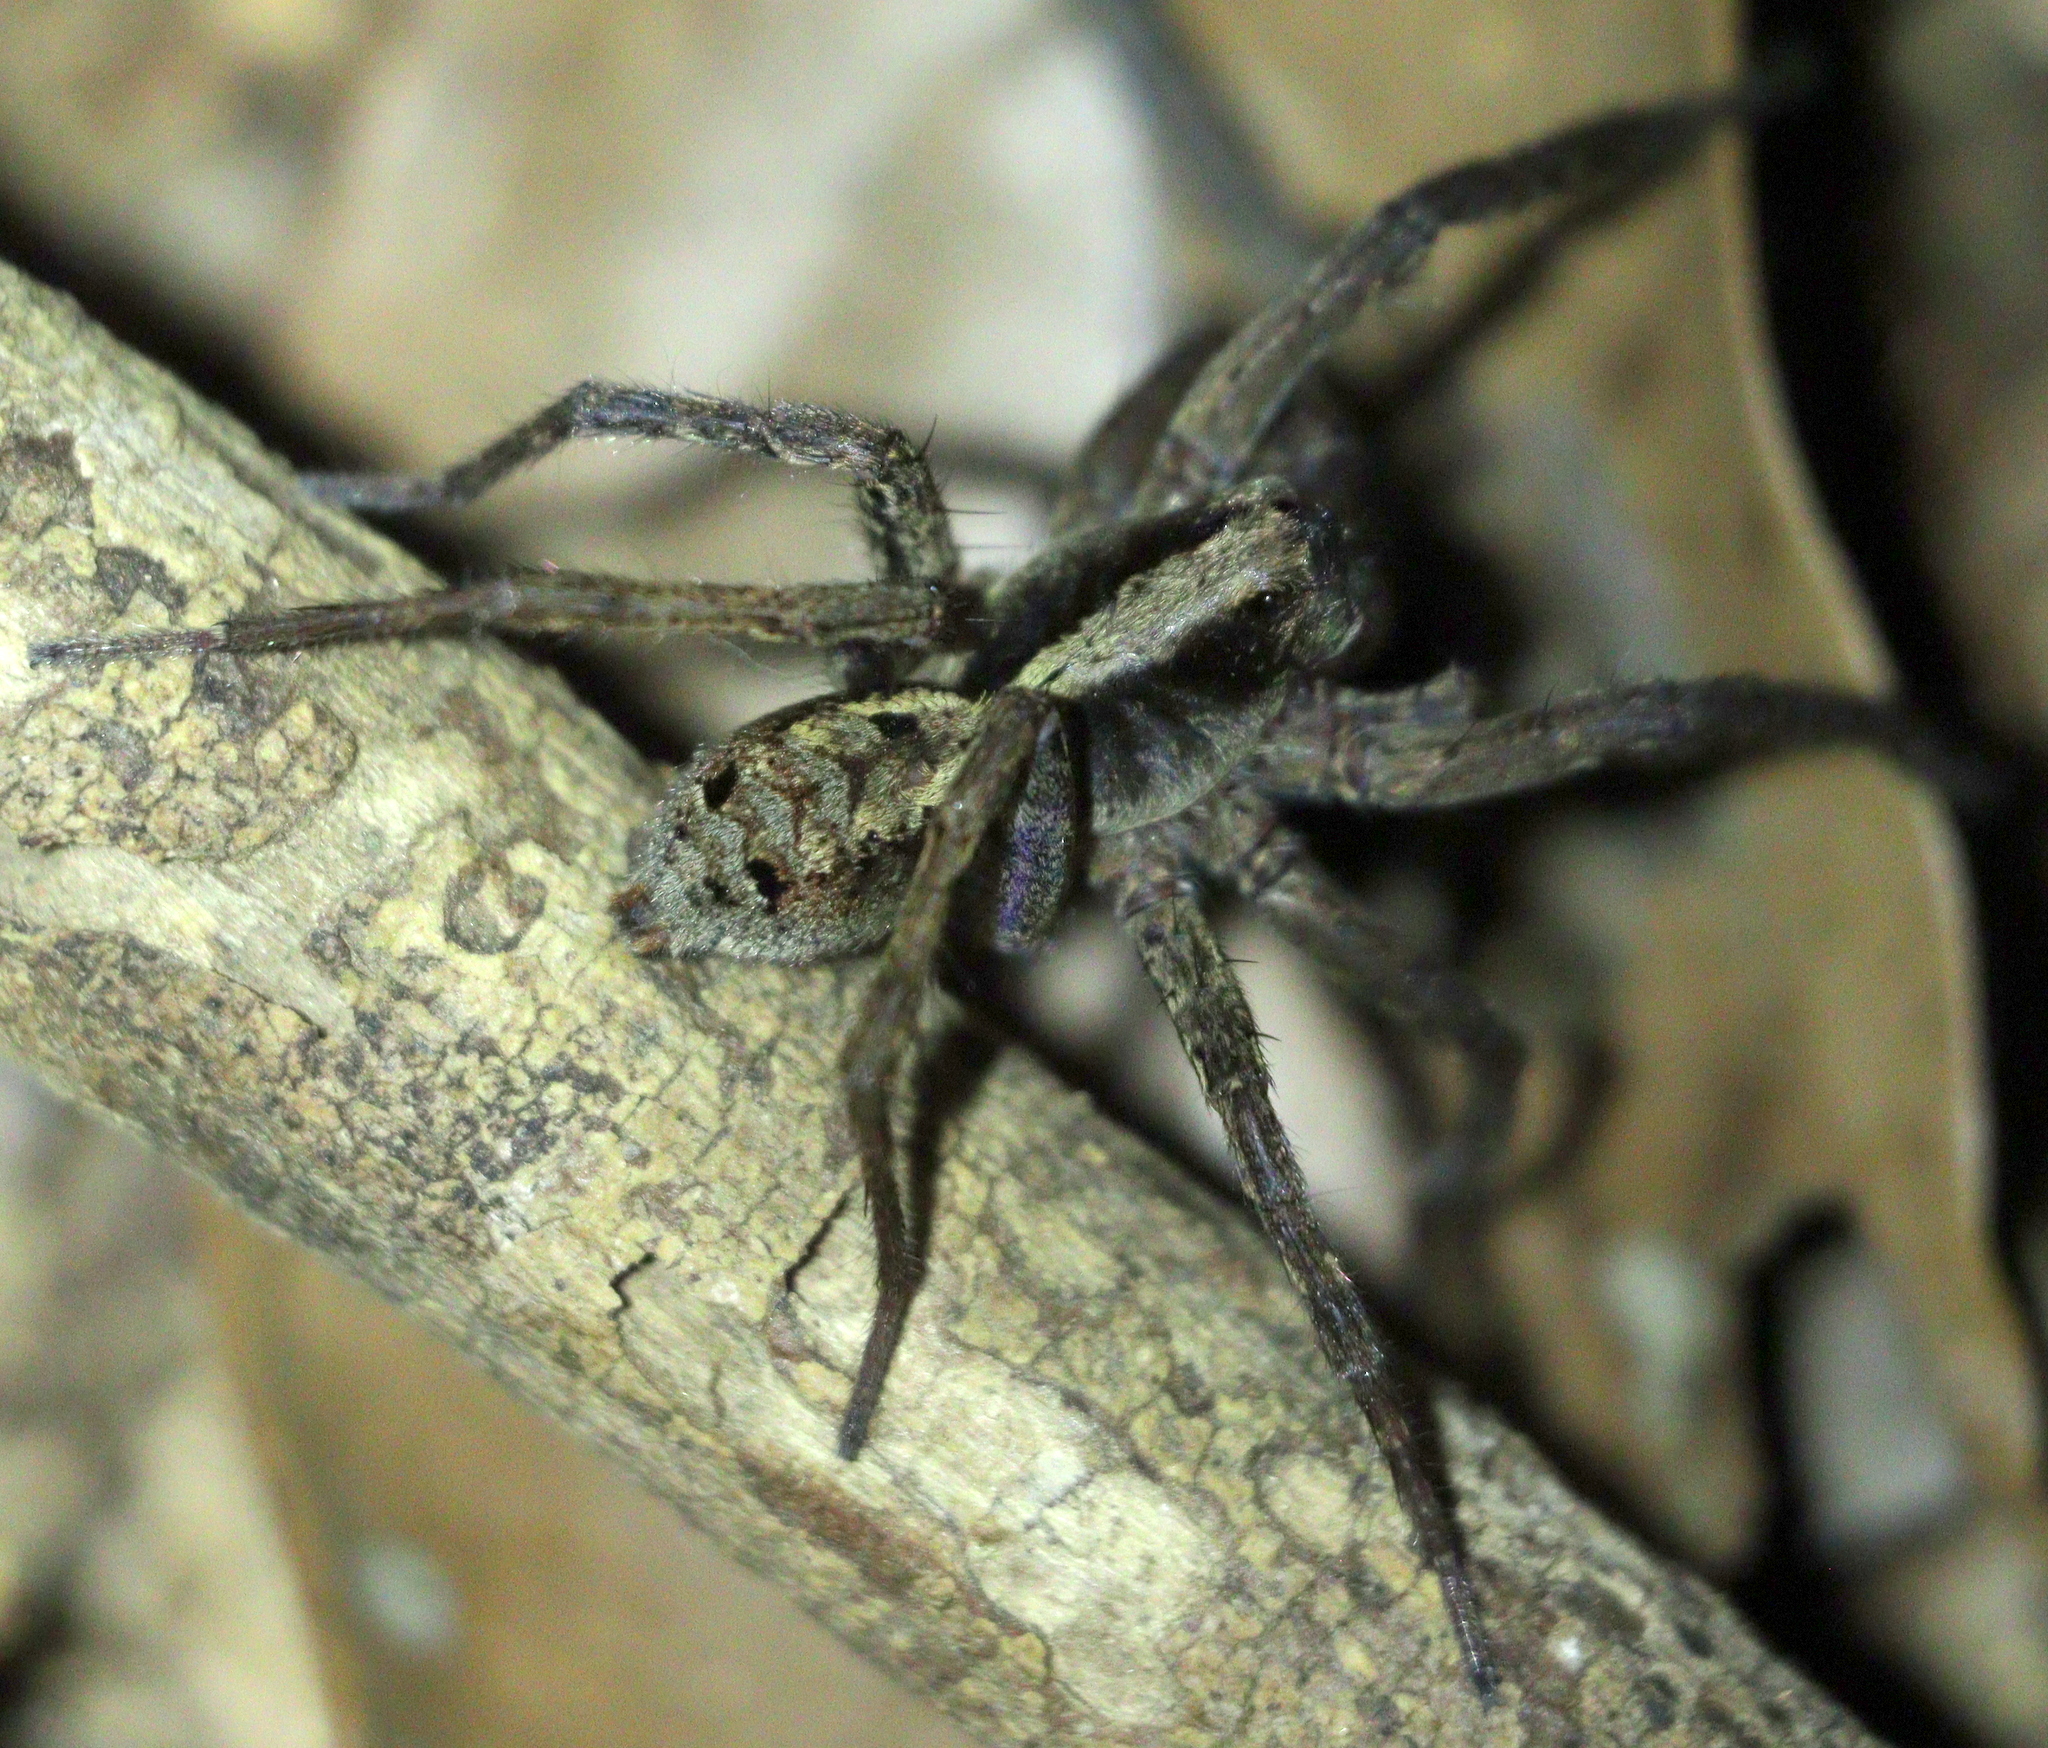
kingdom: Animalia
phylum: Arthropoda
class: Arachnida
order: Araneae
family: Lycosidae
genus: Hogna
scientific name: Hogna gumia
